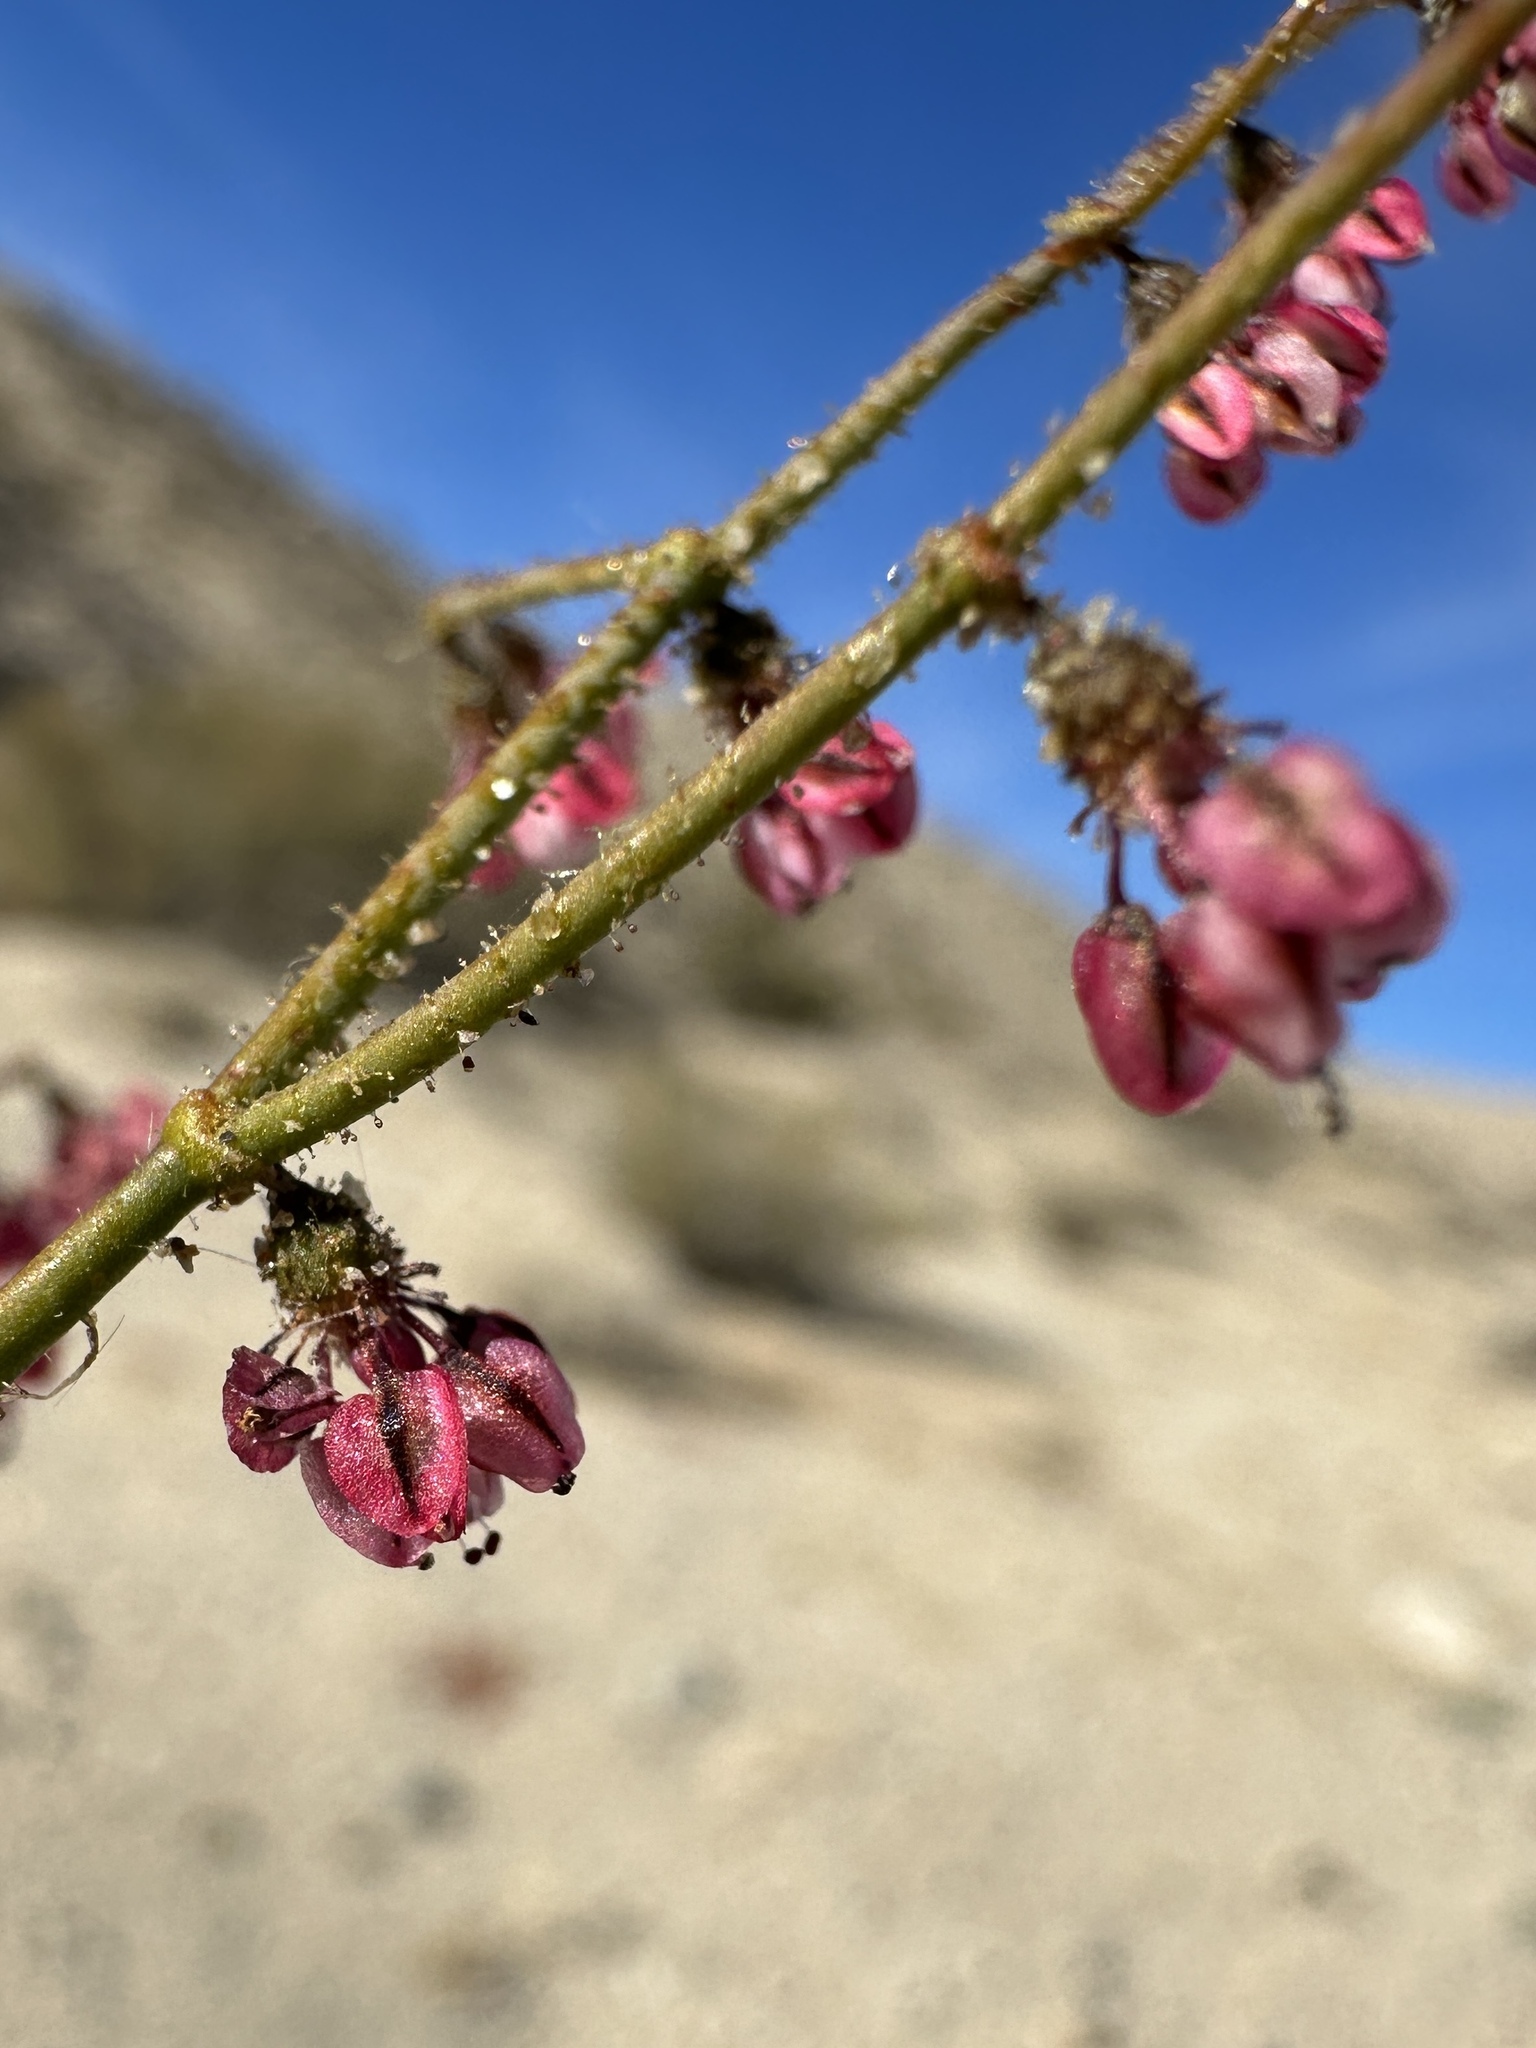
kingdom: Plantae
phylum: Tracheophyta
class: Magnoliopsida
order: Caryophyllales
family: Polygonaceae
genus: Eriogonum
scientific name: Eriogonum brachypodum
